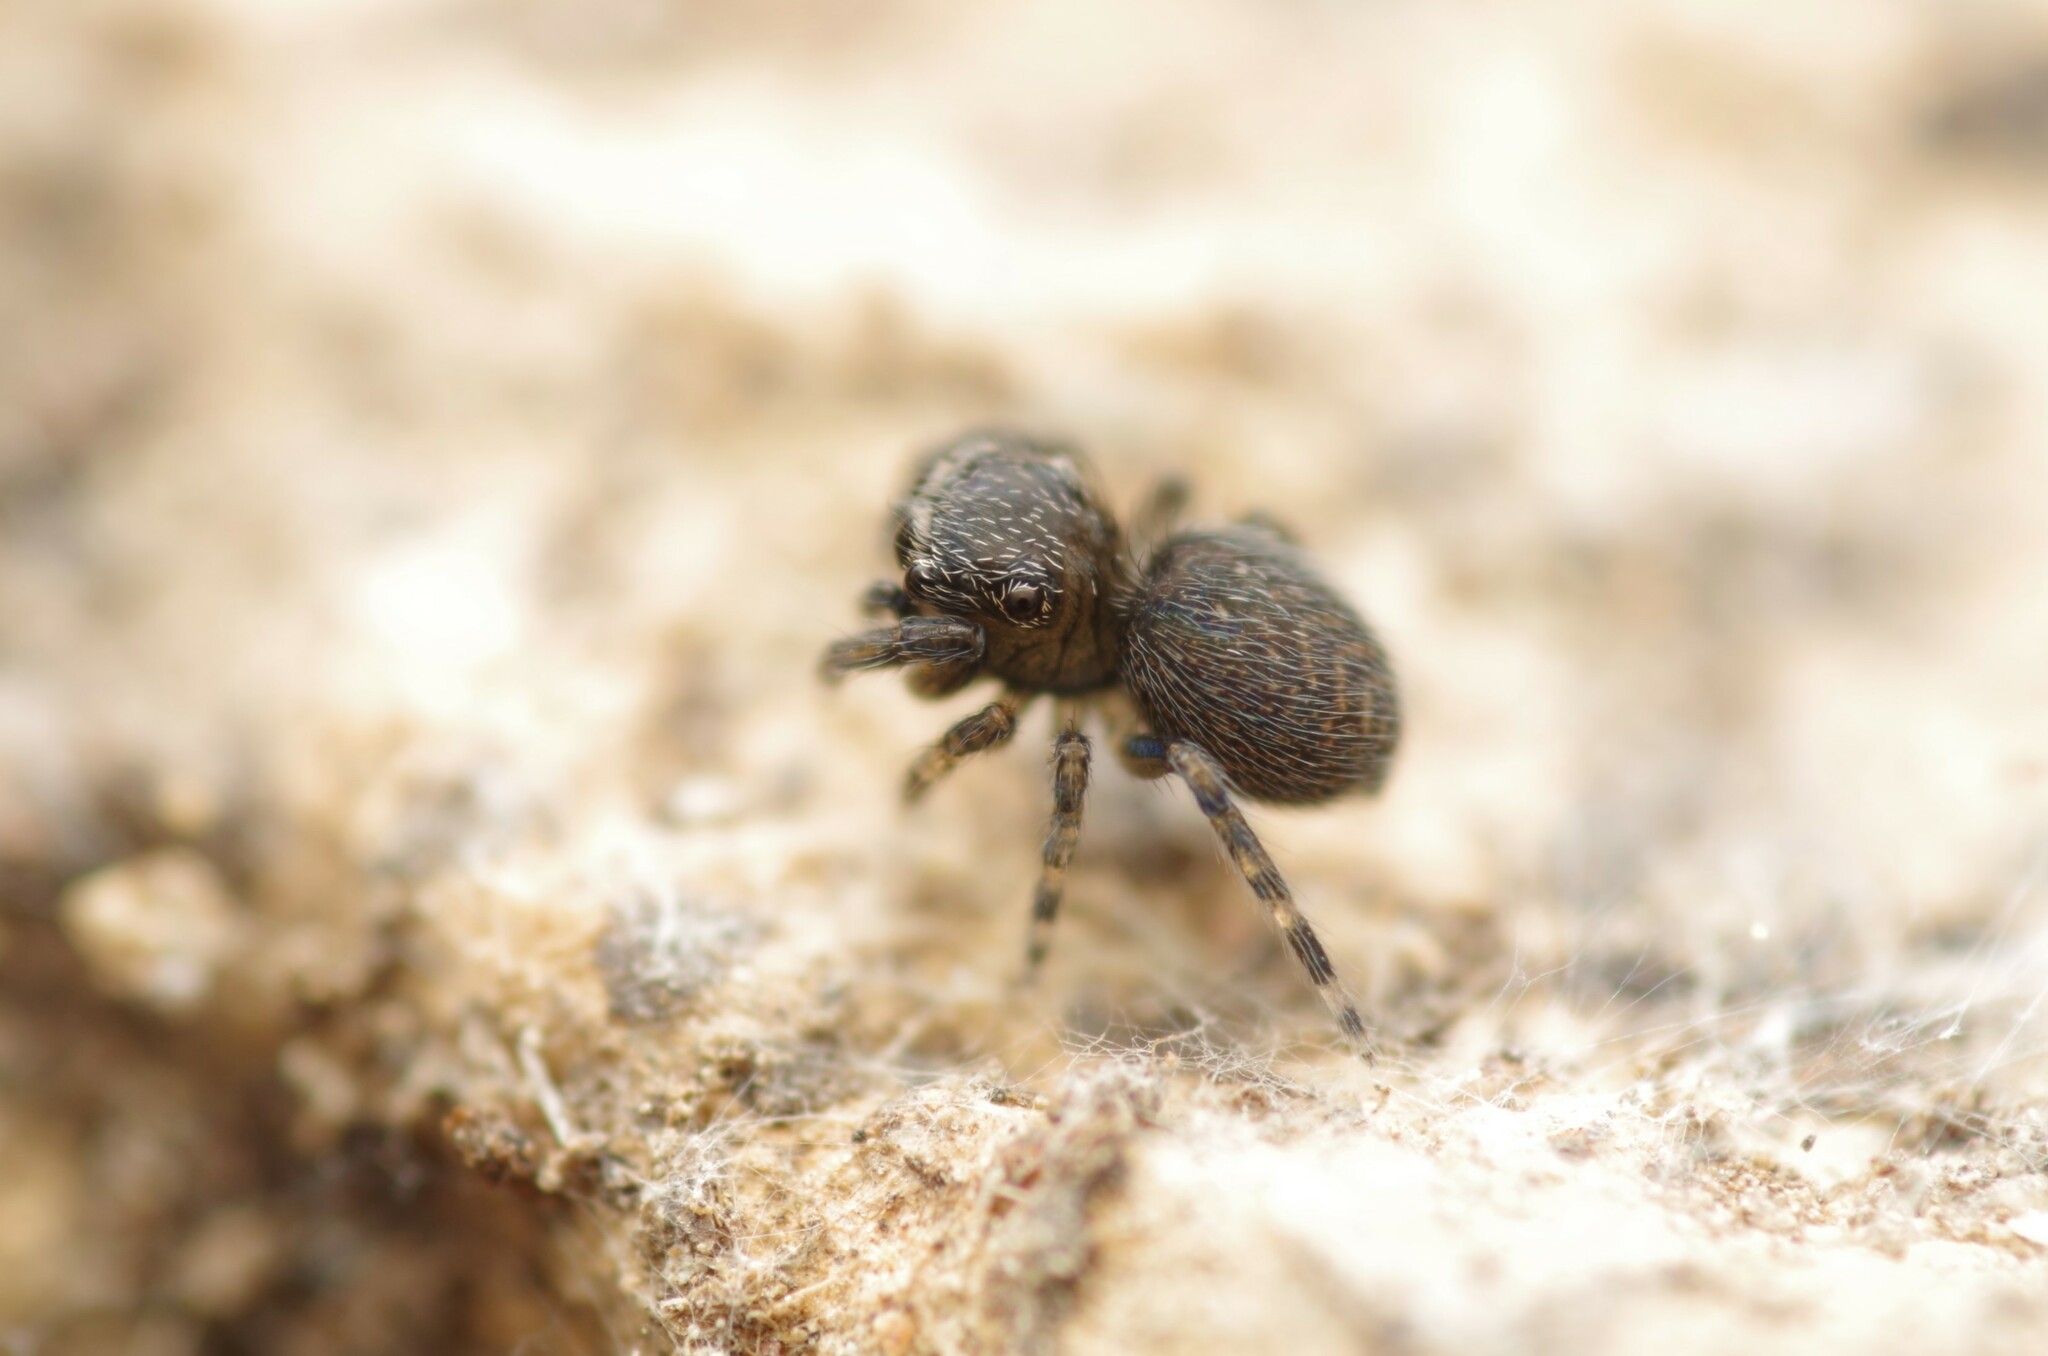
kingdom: Animalia
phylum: Arthropoda
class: Arachnida
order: Araneae
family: Salticidae
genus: Neon
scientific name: Neon
